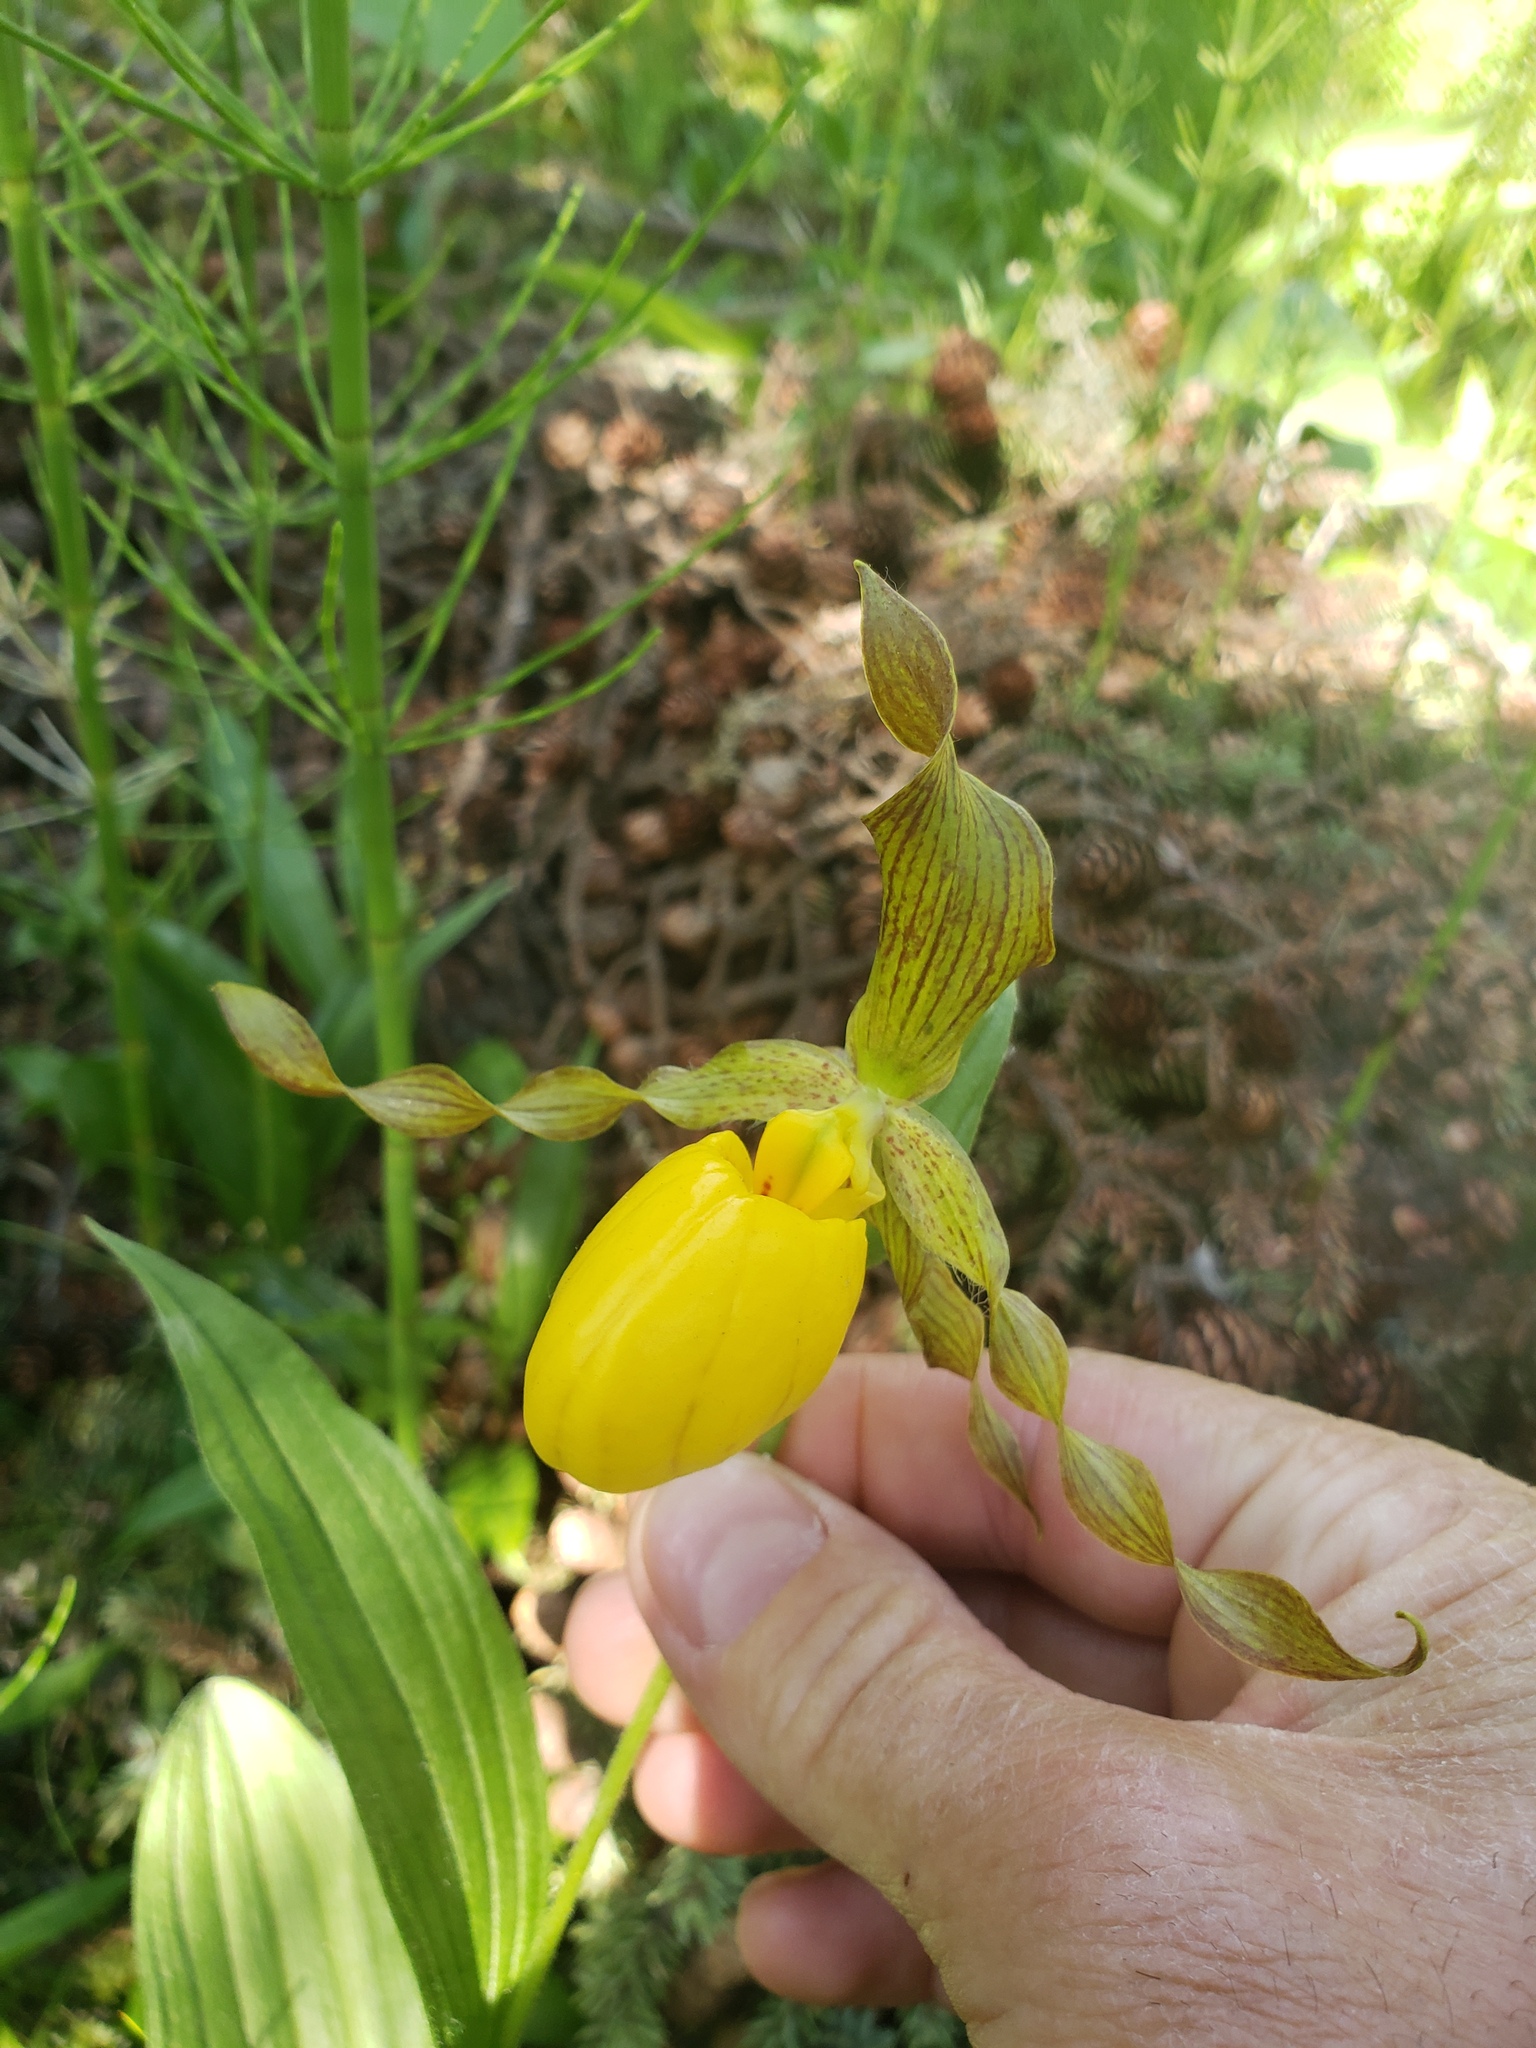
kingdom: Plantae
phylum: Tracheophyta
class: Liliopsida
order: Asparagales
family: Orchidaceae
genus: Cypripedium
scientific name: Cypripedium parviflorum
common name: American yellow lady's-slipper
